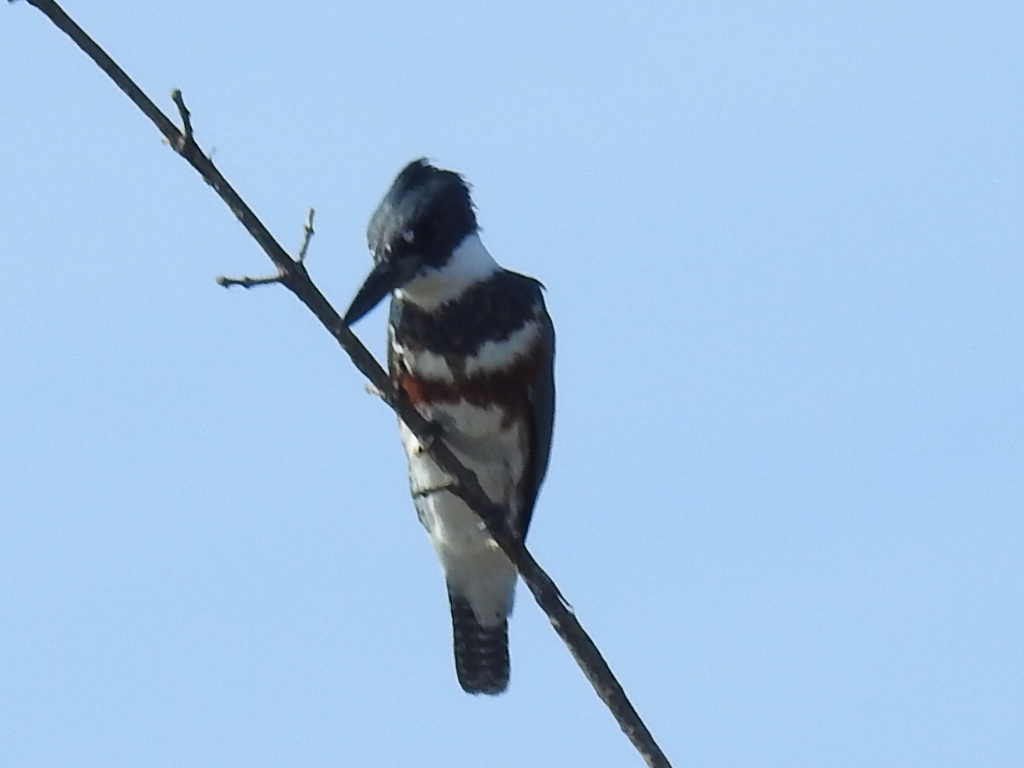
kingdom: Animalia
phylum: Chordata
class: Aves
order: Coraciiformes
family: Alcedinidae
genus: Megaceryle
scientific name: Megaceryle alcyon
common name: Belted kingfisher
